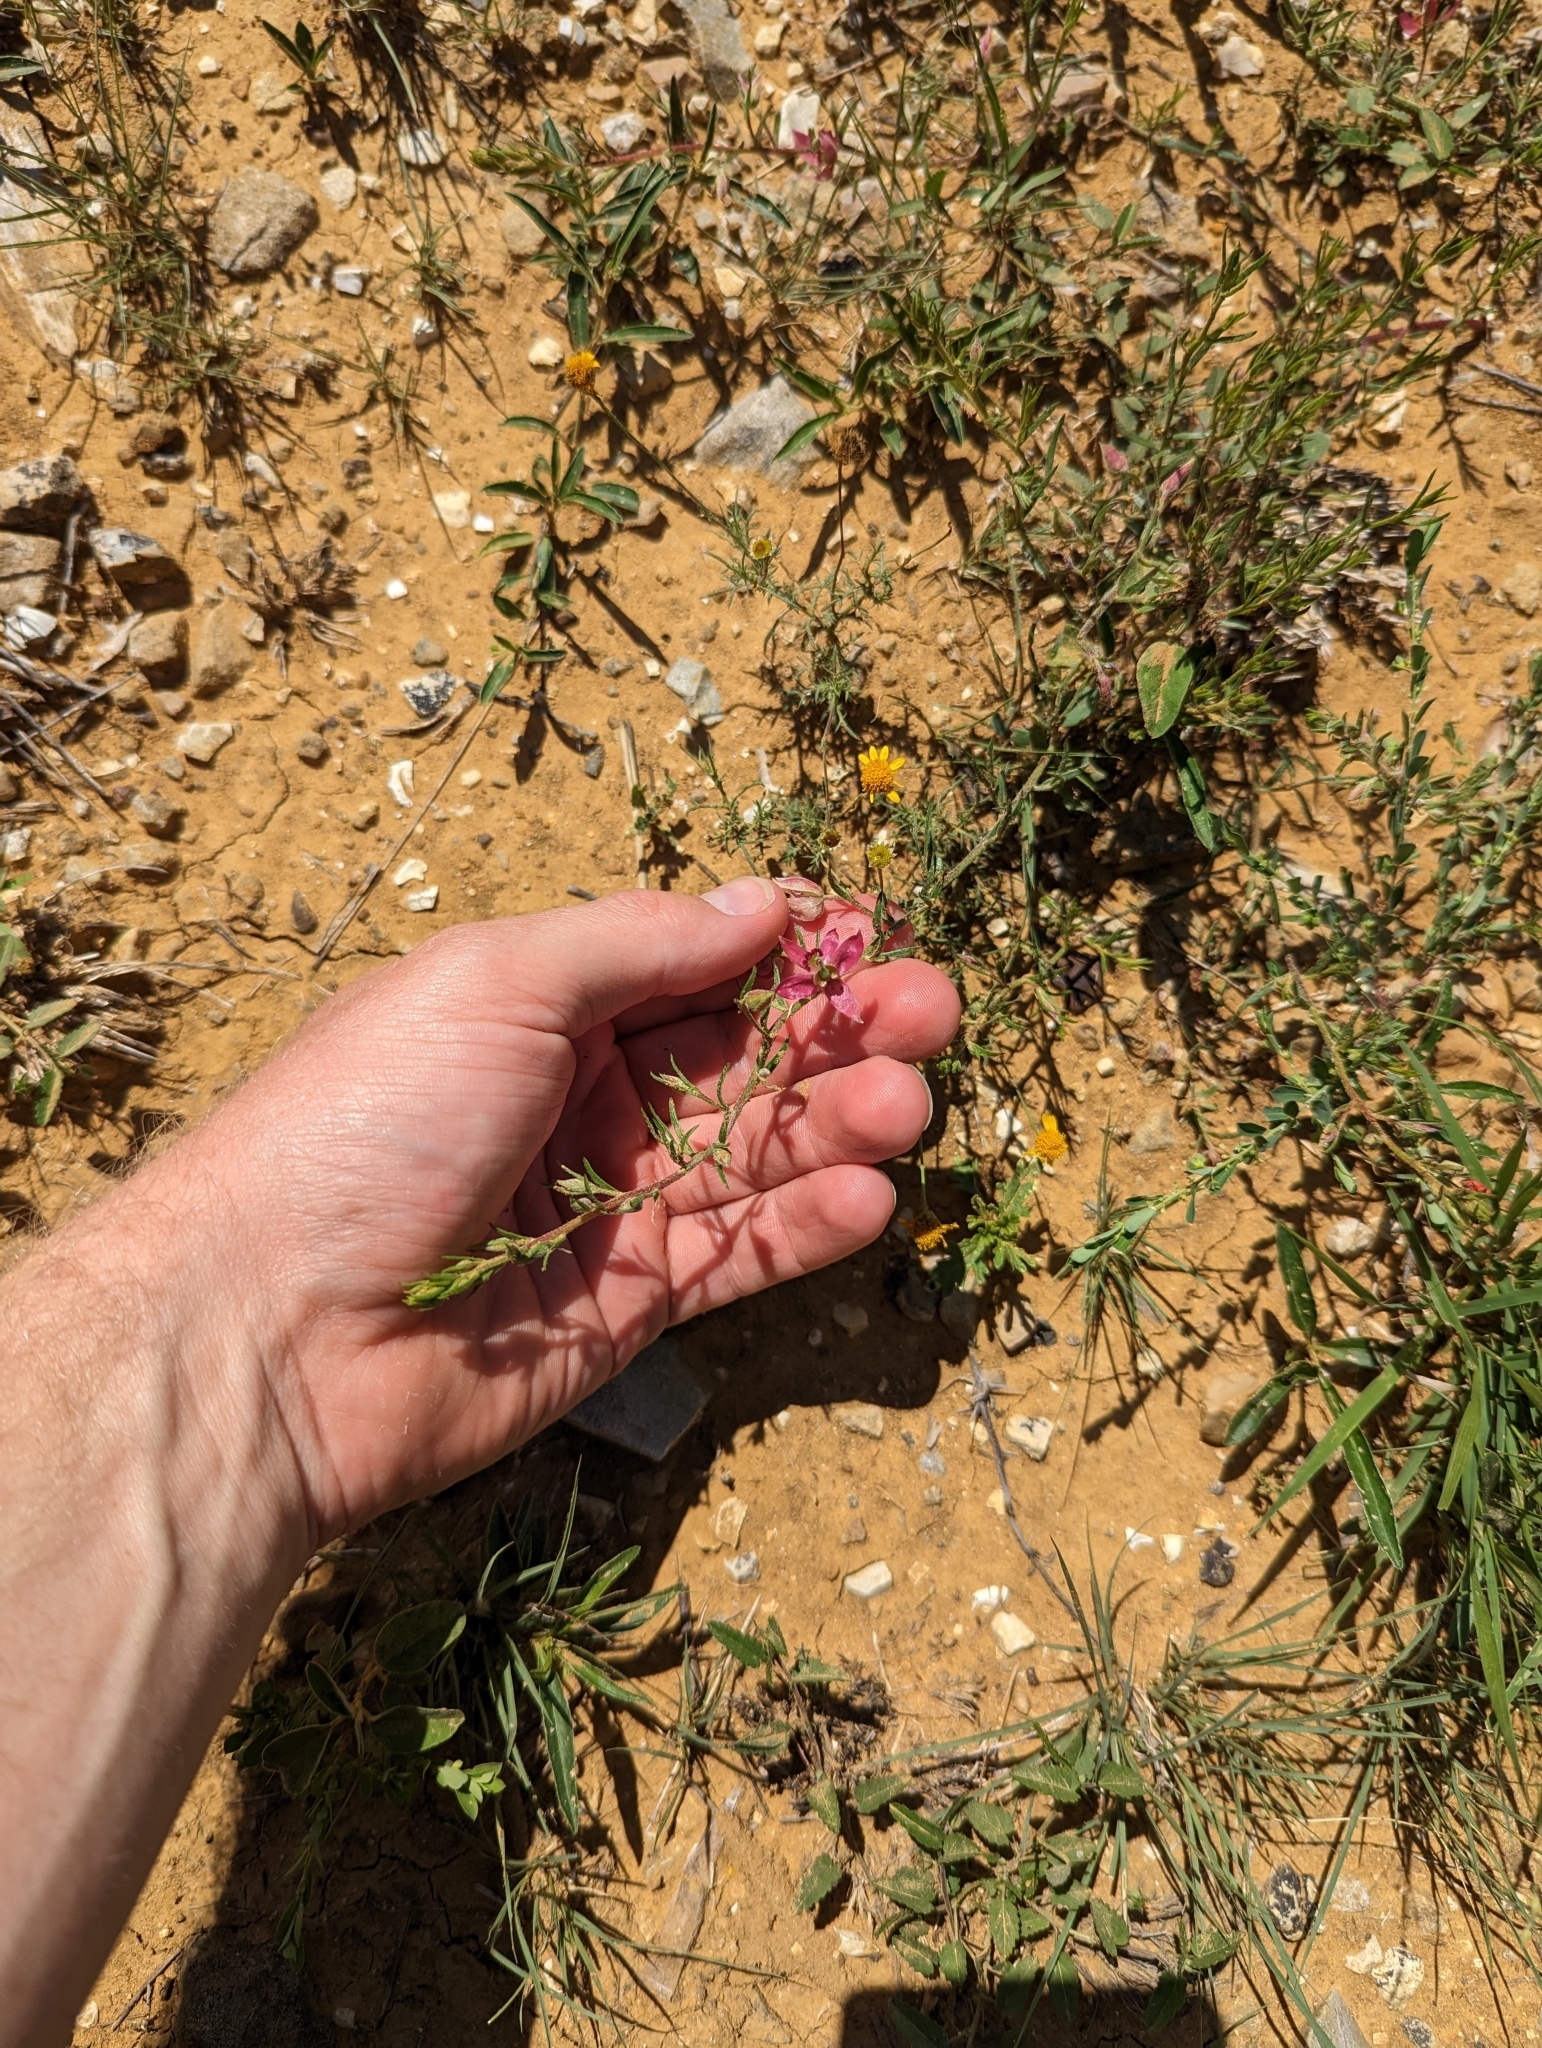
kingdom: Plantae
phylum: Tracheophyta
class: Magnoliopsida
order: Zygophyllales
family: Krameriaceae
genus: Krameria
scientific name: Krameria lanceolata
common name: Ratany
